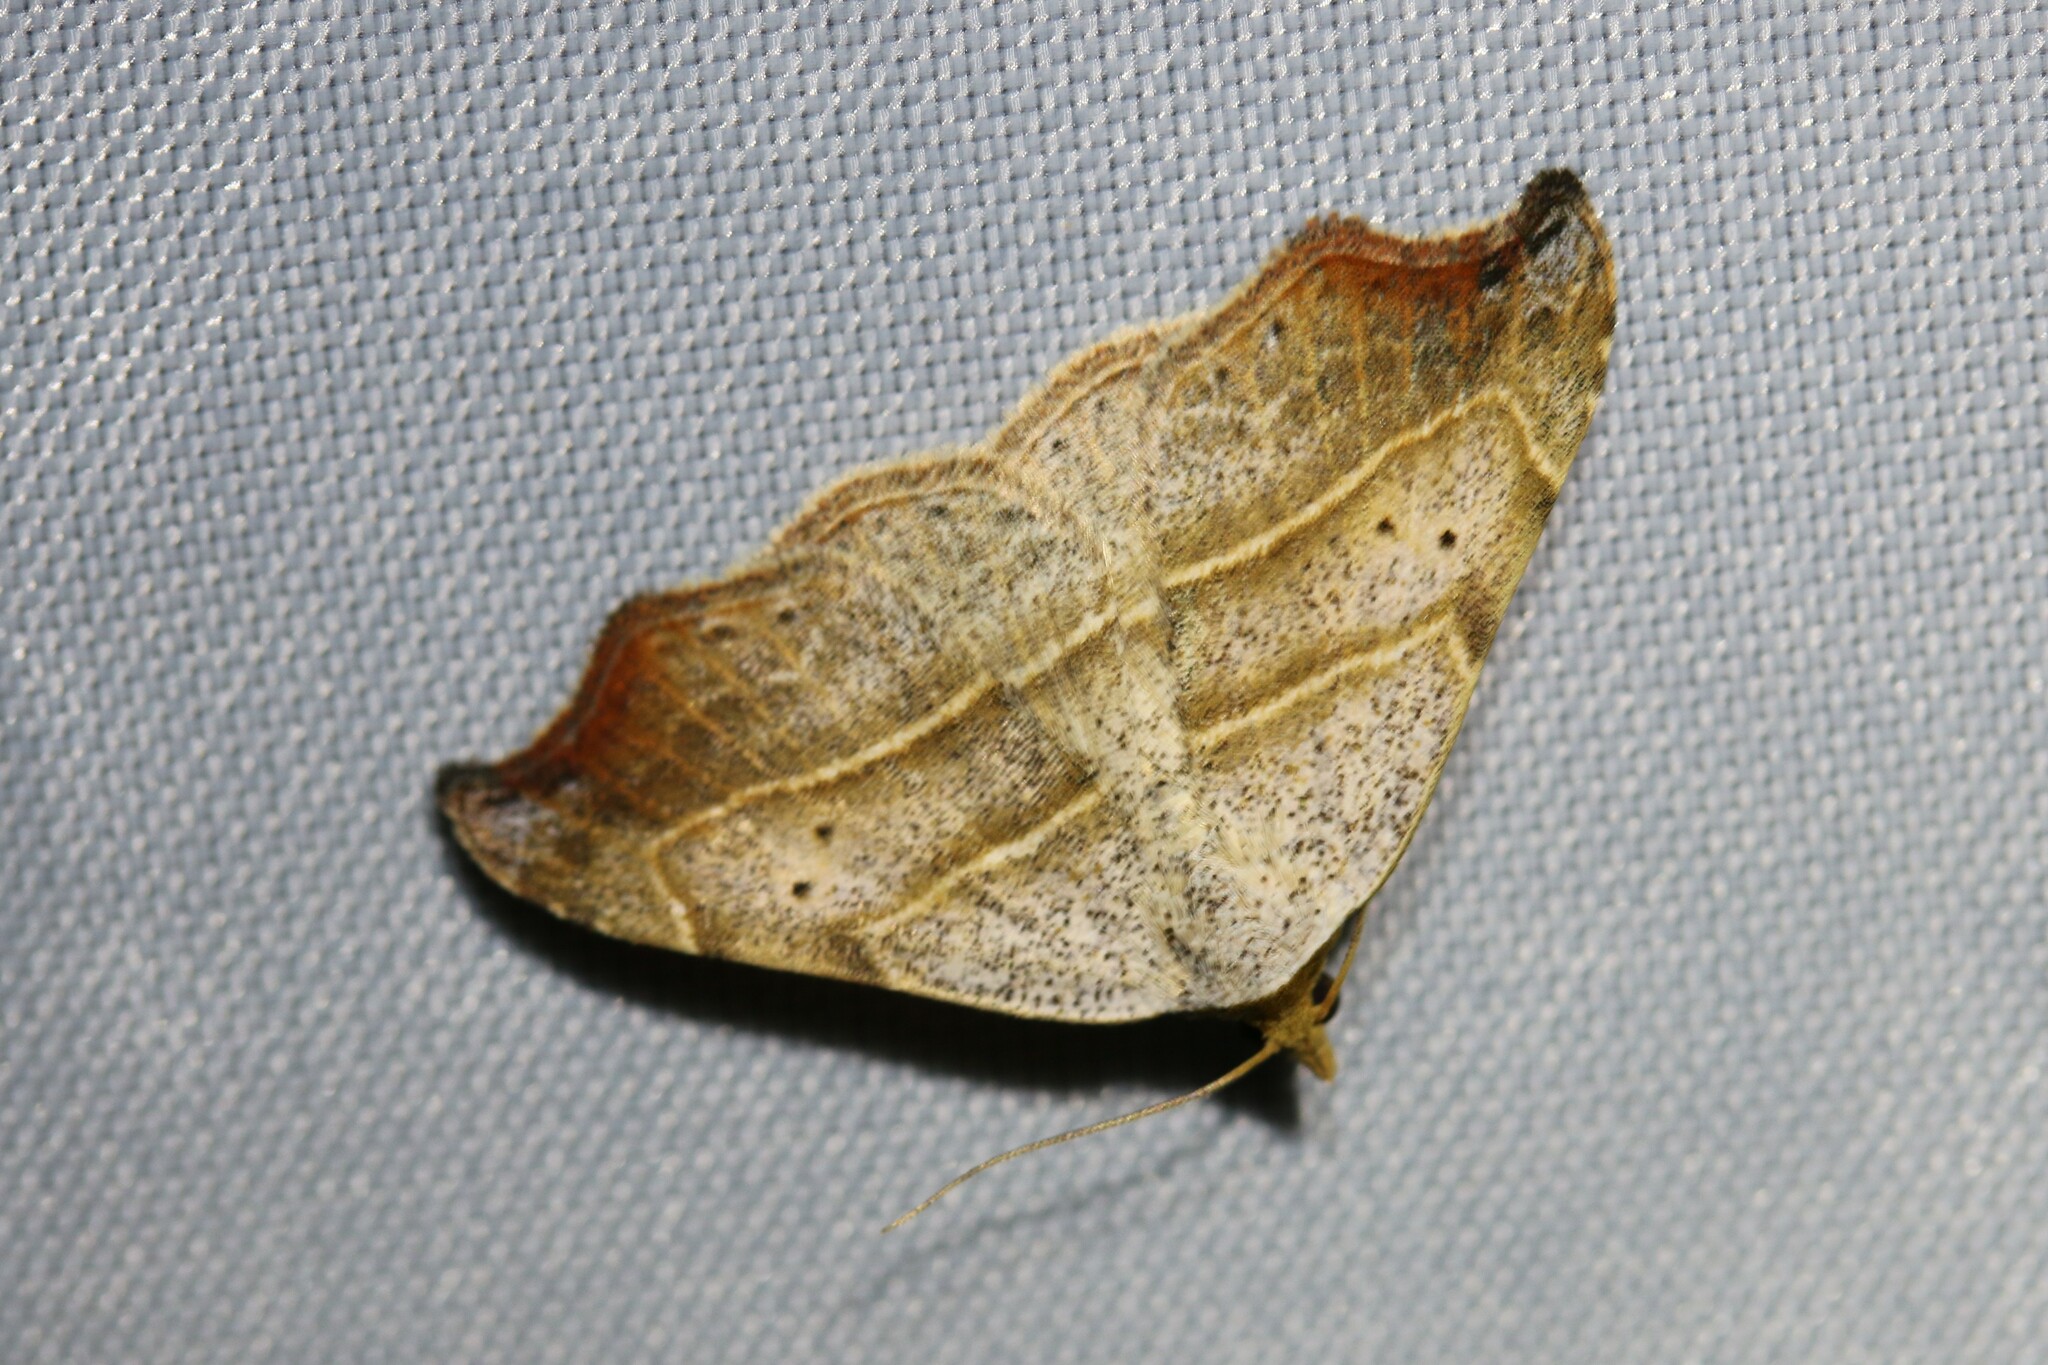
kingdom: Animalia
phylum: Arthropoda
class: Insecta
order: Lepidoptera
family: Erebidae
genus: Laspeyria
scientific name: Laspeyria flexula
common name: Beautiful hook-tip
